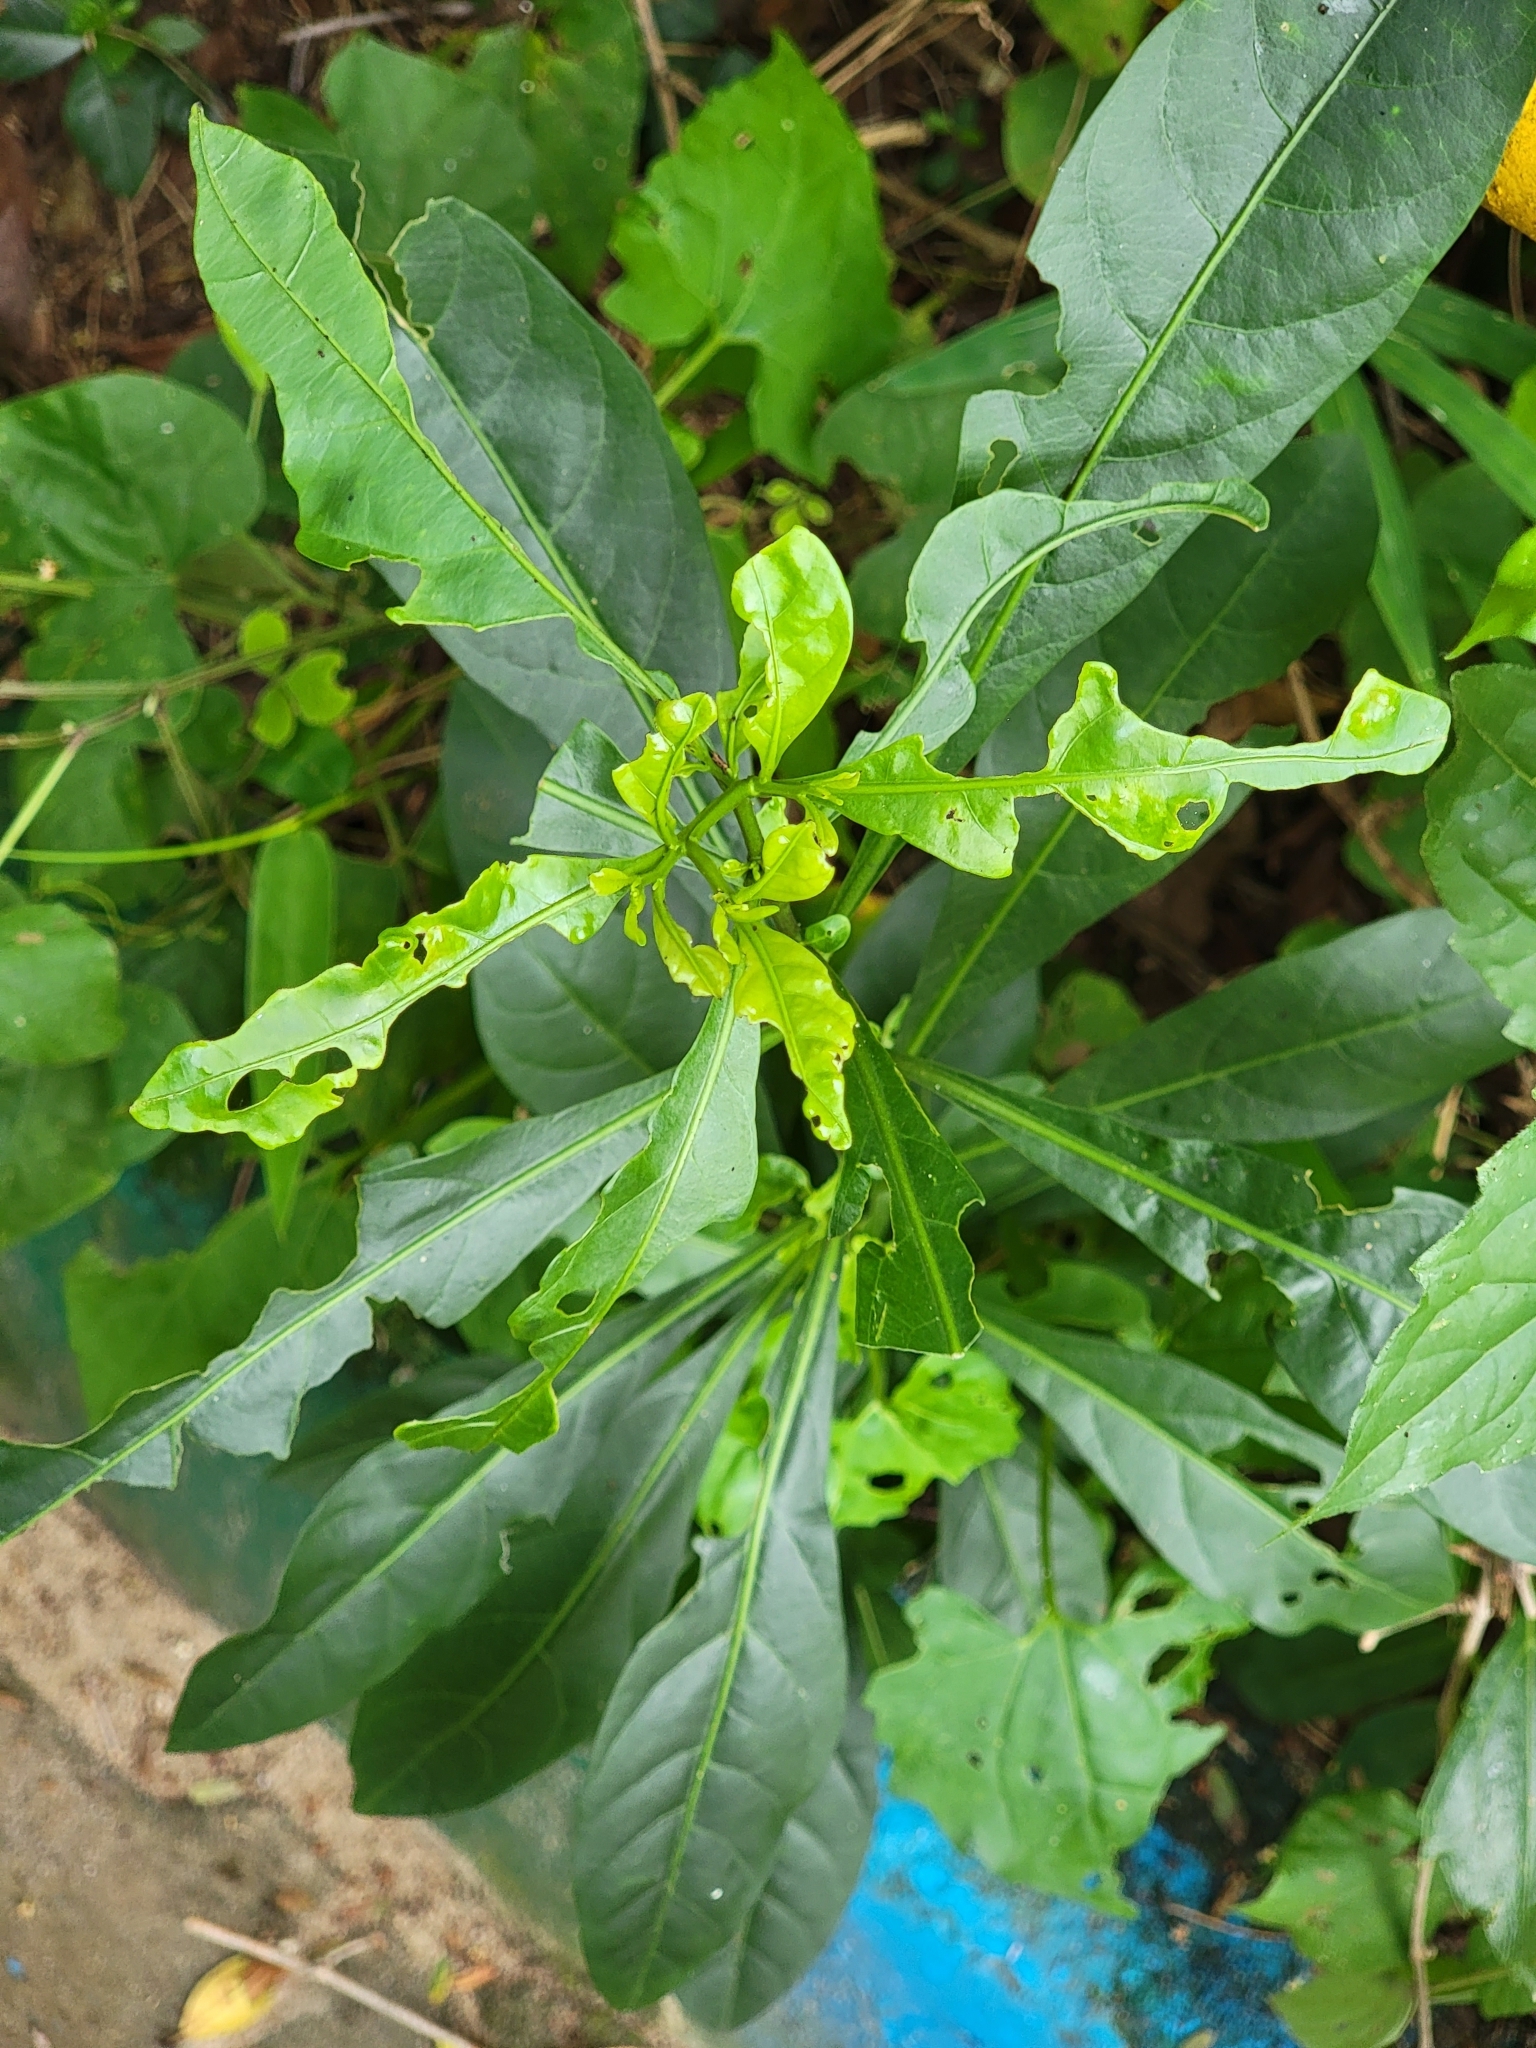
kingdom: Plantae
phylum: Tracheophyta
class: Magnoliopsida
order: Solanales
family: Solanaceae
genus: Solanum
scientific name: Solanum diphyllum
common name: Twoleaf nightshade
